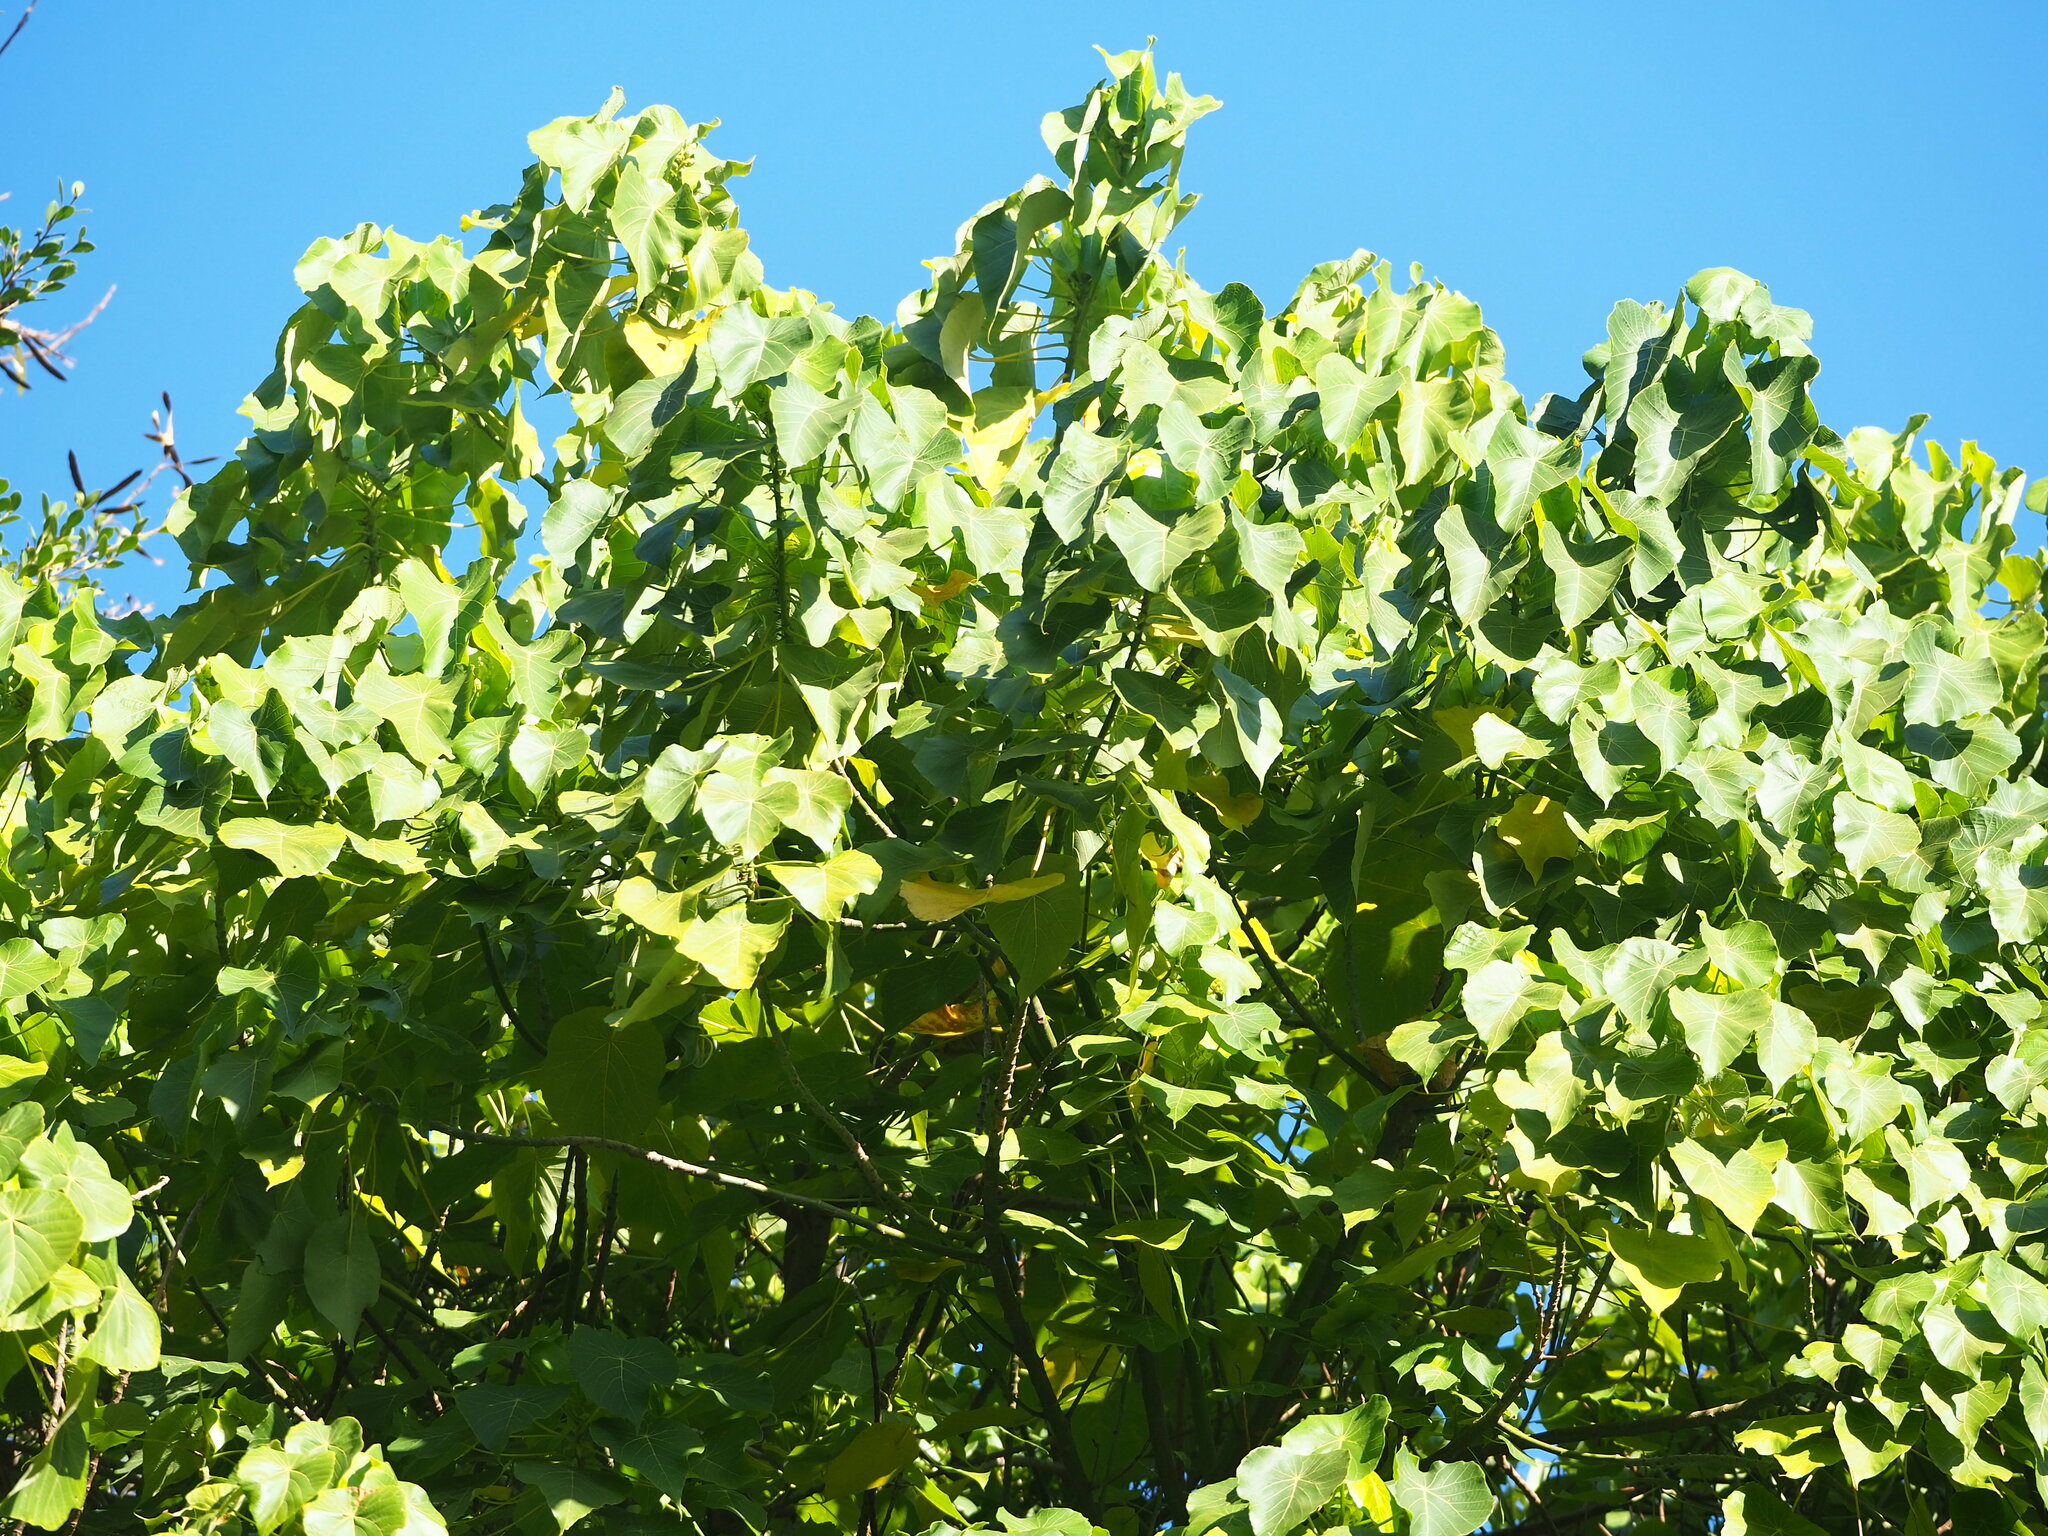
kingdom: Plantae
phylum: Tracheophyta
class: Magnoliopsida
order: Malpighiales
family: Euphorbiaceae
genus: Macaranga
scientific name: Macaranga tanarius
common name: Parasol leaf tree
